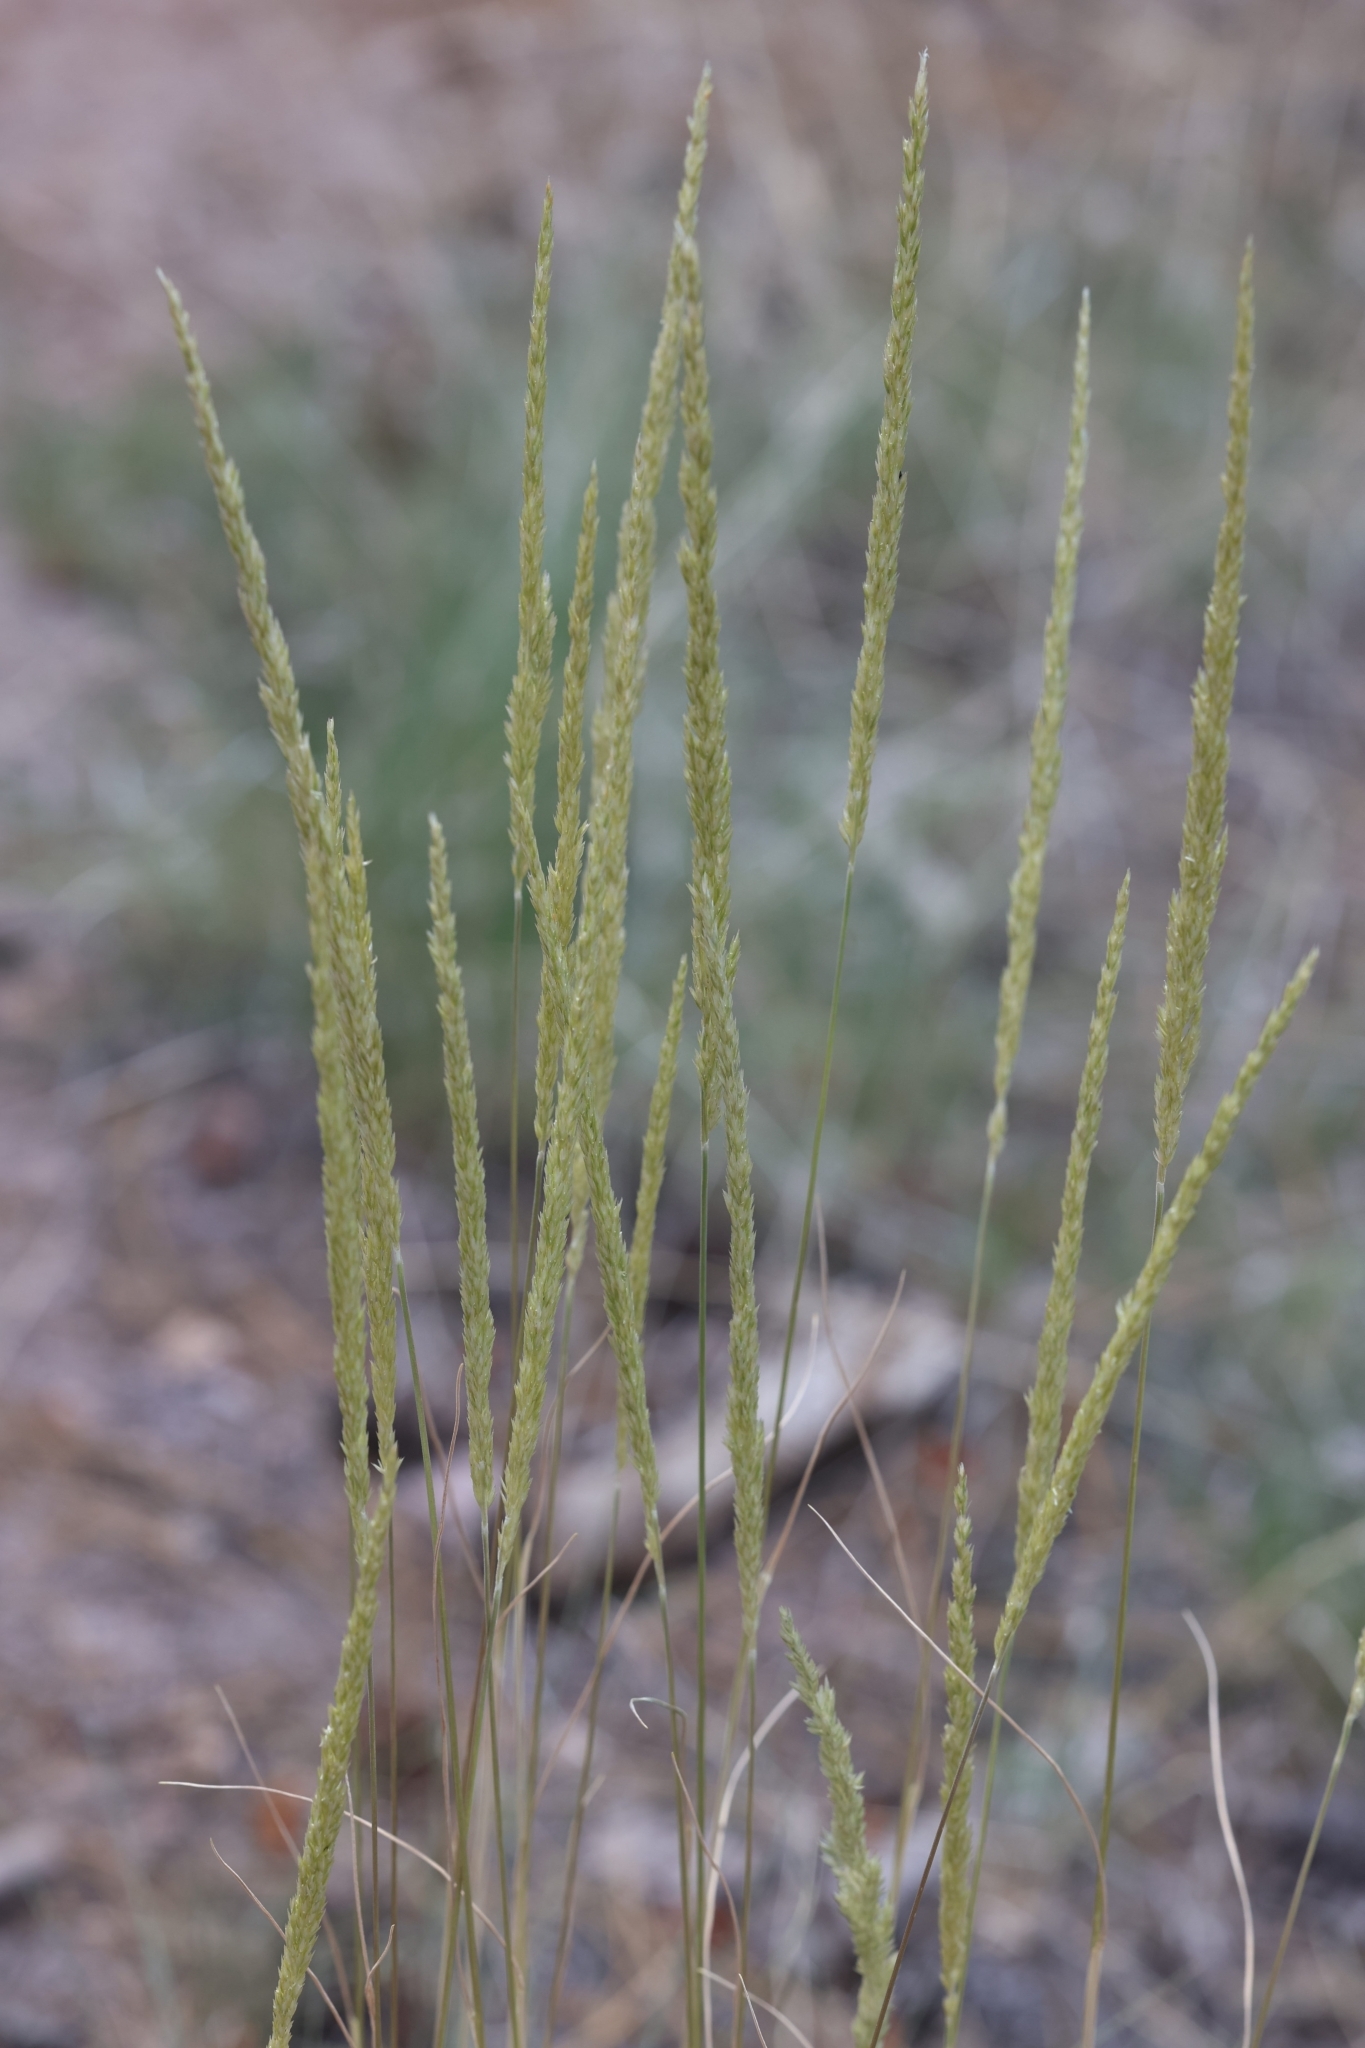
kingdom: Plantae
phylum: Tracheophyta
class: Liliopsida
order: Poales
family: Poaceae
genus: Koeleria
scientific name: Koeleria macrantha
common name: Crested hair-grass
